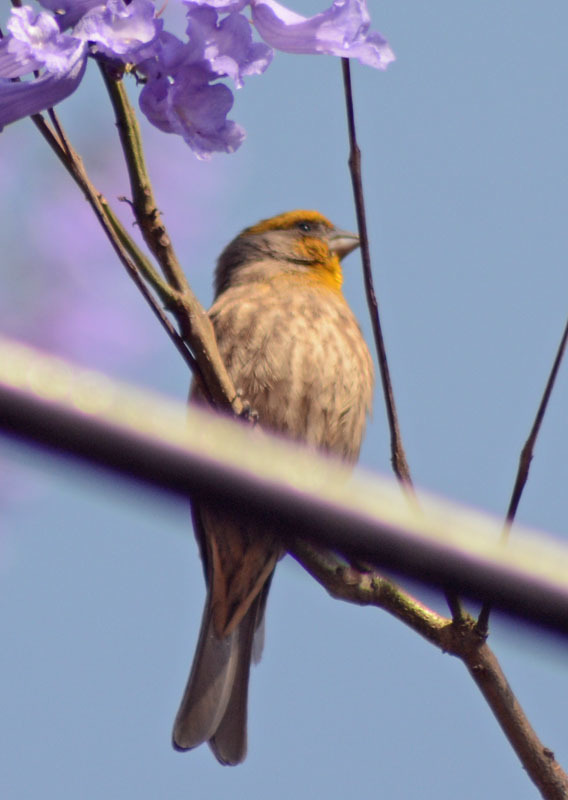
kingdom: Animalia
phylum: Chordata
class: Aves
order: Passeriformes
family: Fringillidae
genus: Haemorhous
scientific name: Haemorhous mexicanus
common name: House finch
